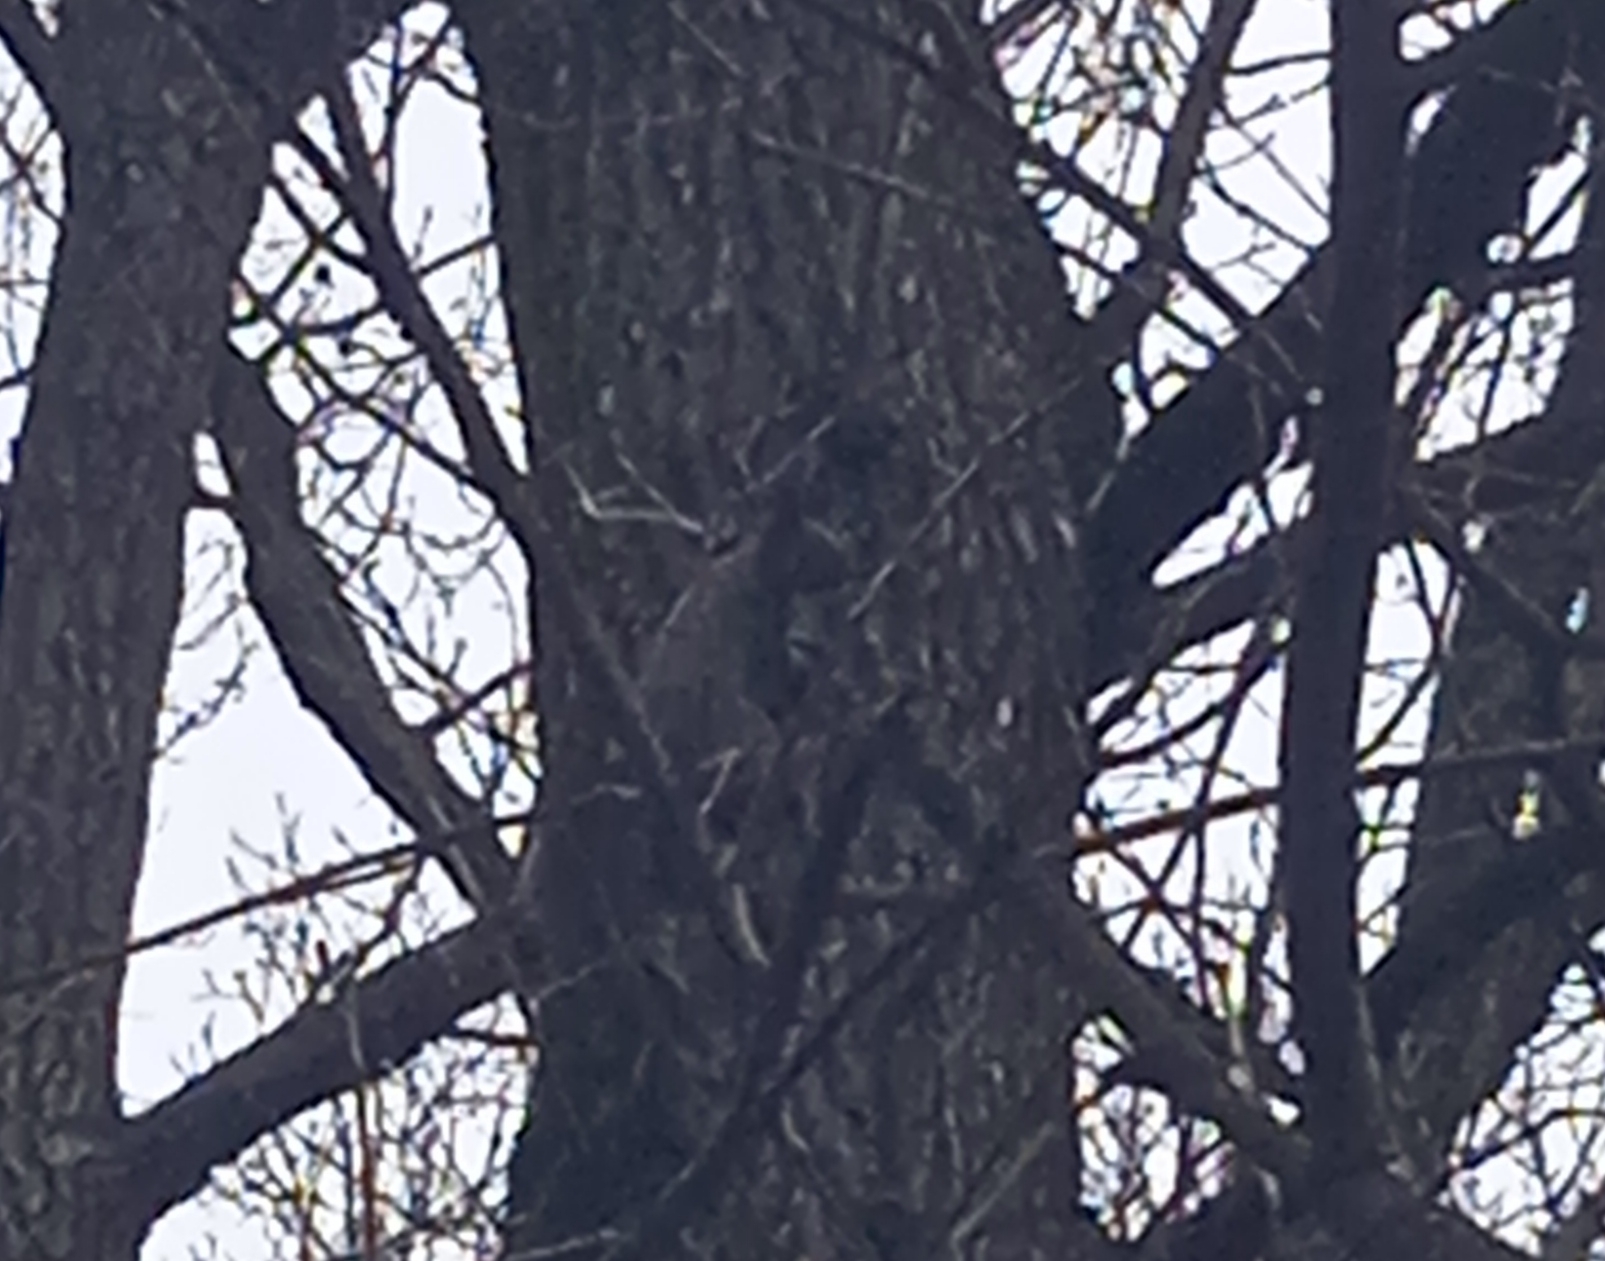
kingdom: Animalia
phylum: Chordata
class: Mammalia
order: Rodentia
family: Sciuridae
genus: Sciurus
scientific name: Sciurus vulgaris
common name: Eurasian red squirrel
